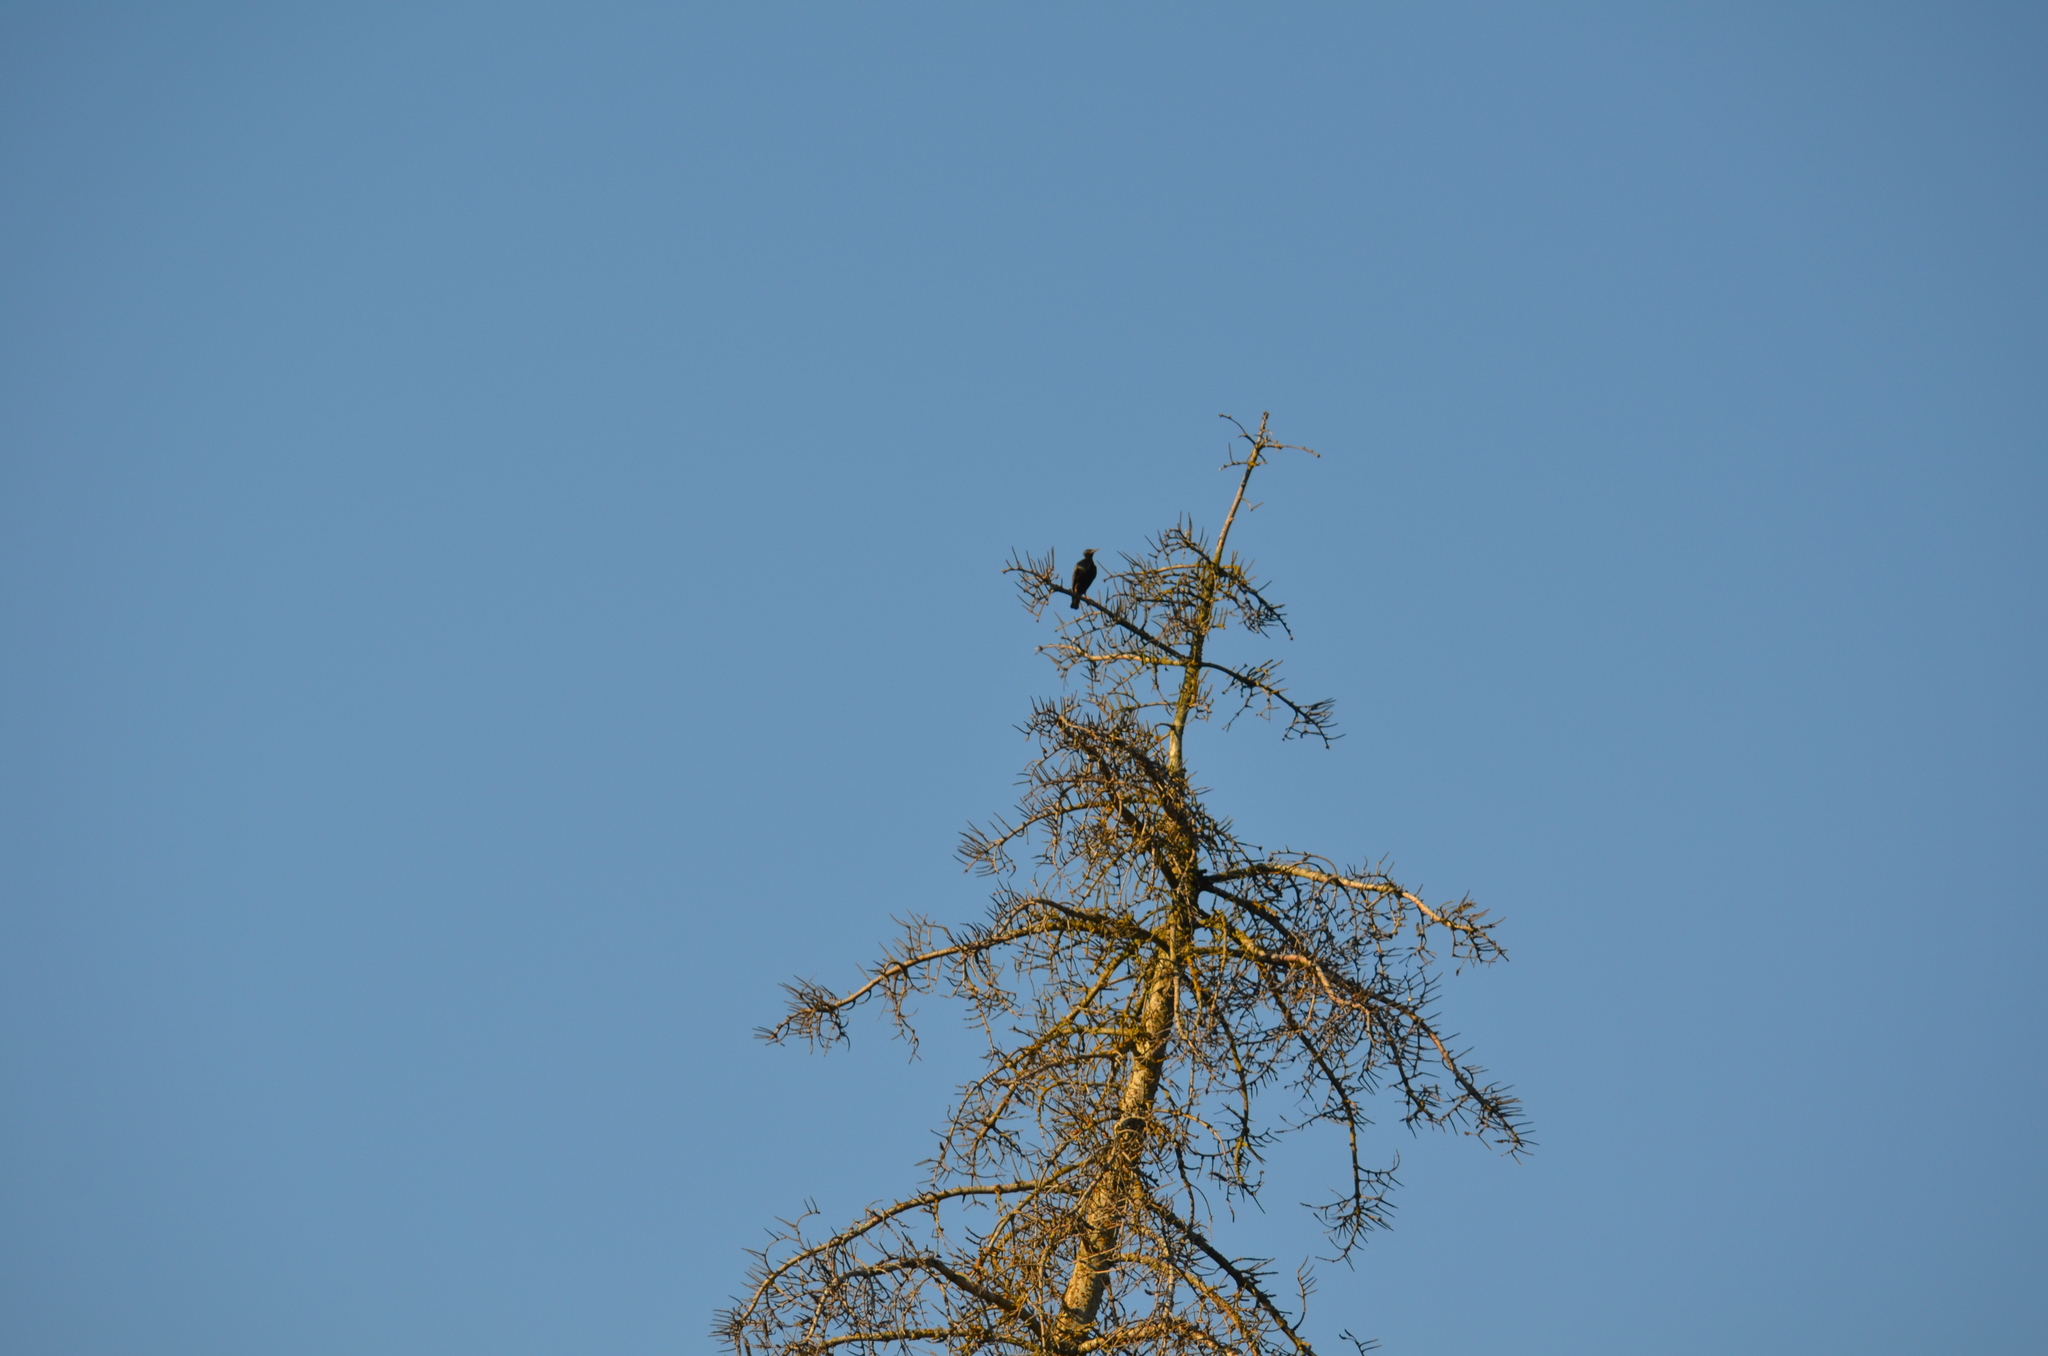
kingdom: Animalia
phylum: Chordata
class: Aves
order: Passeriformes
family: Sturnidae
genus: Sturnus
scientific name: Sturnus vulgaris
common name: Common starling
